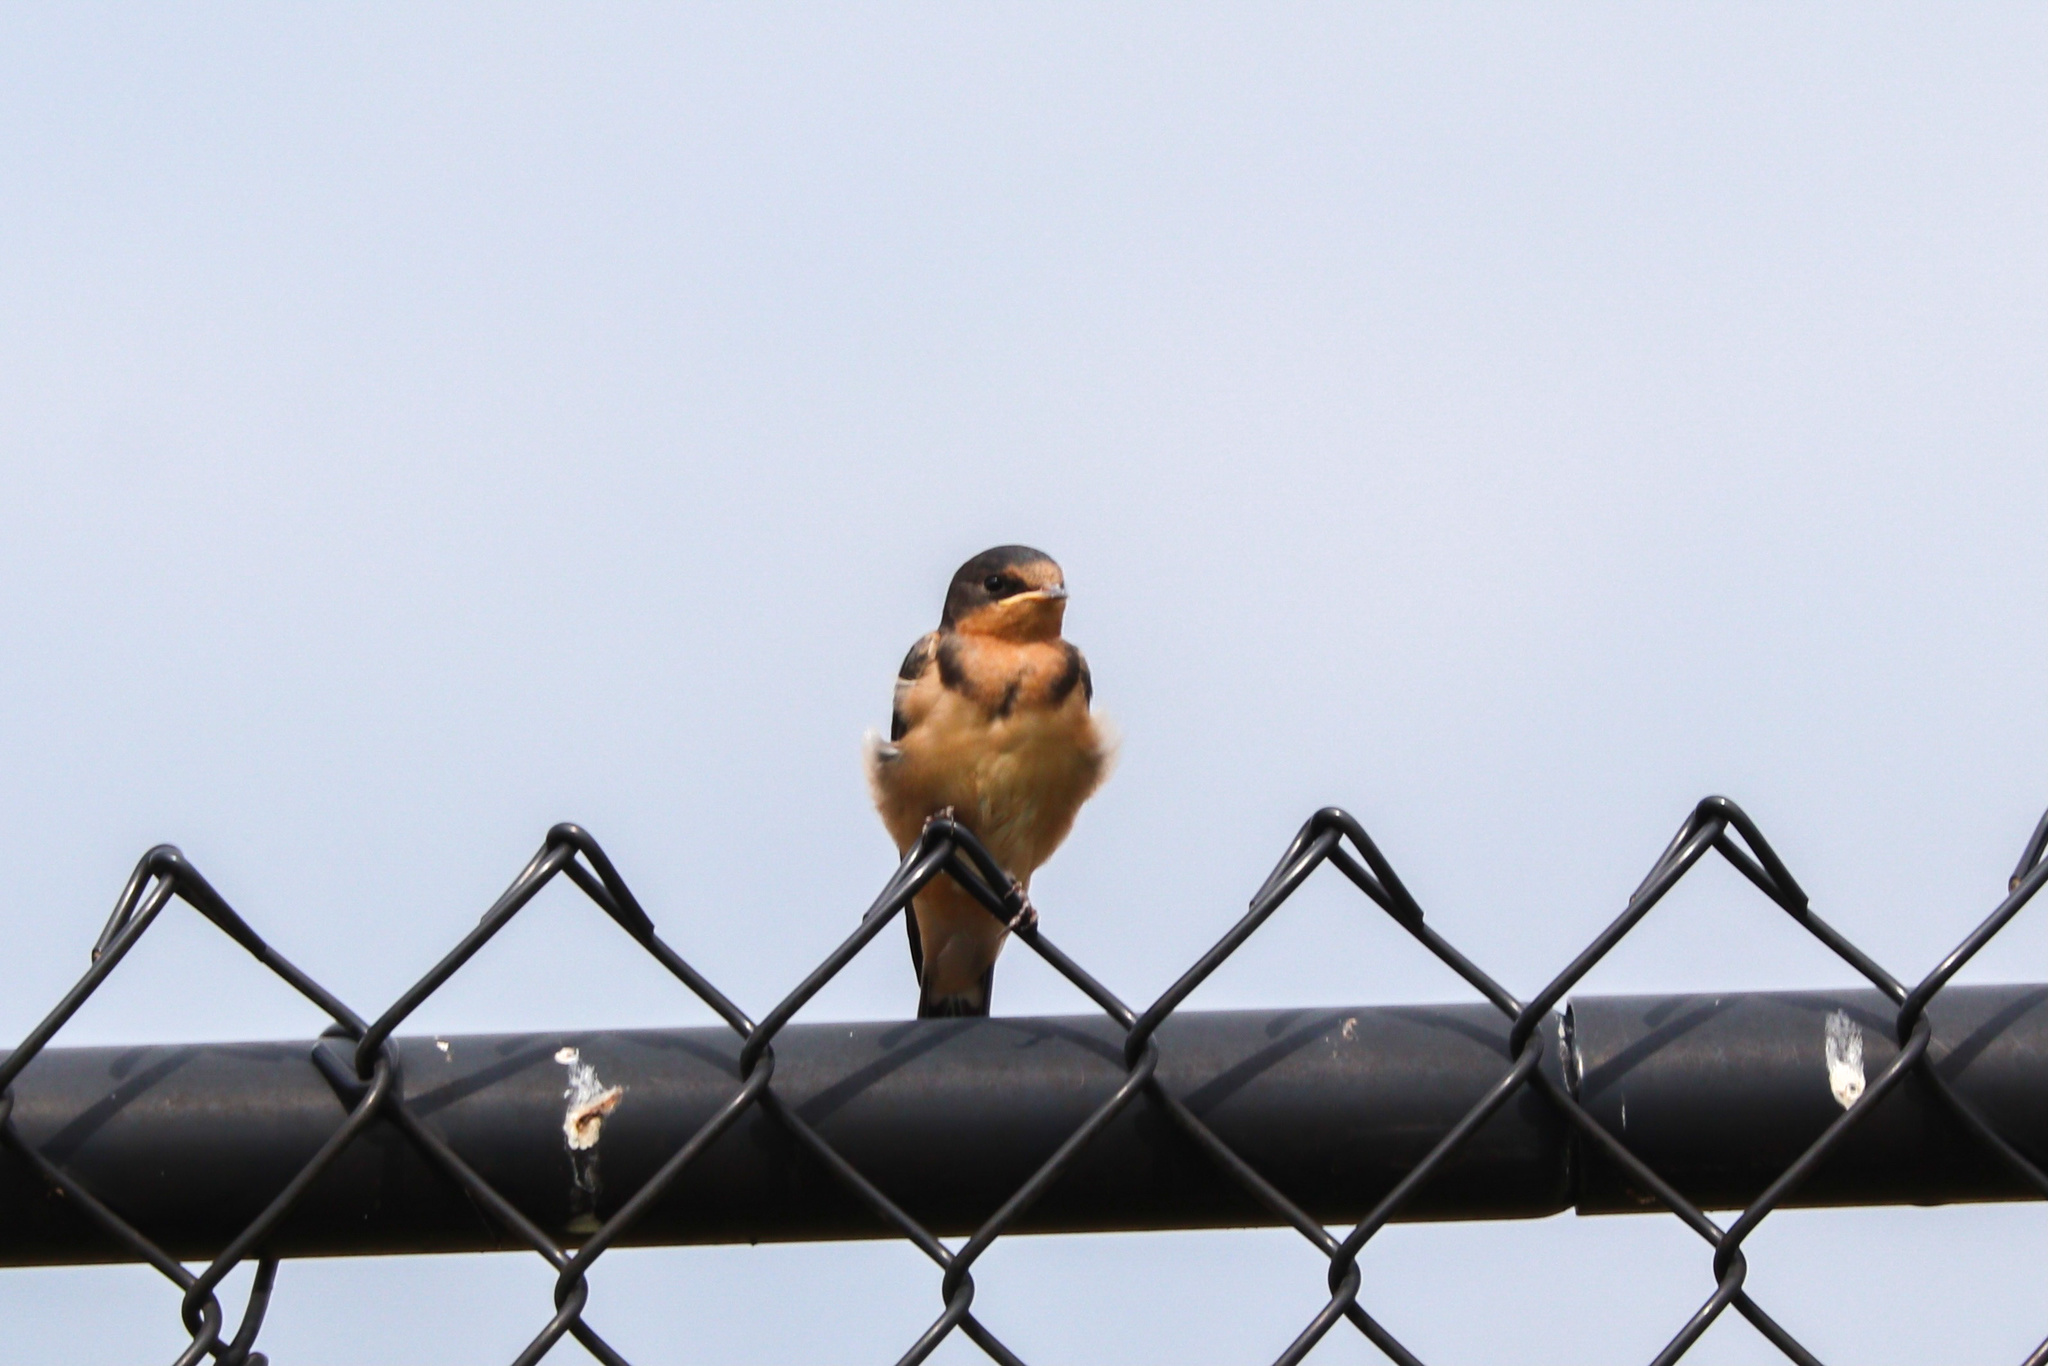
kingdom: Animalia
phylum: Chordata
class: Aves
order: Passeriformes
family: Hirundinidae
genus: Hirundo
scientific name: Hirundo rustica
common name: Barn swallow
